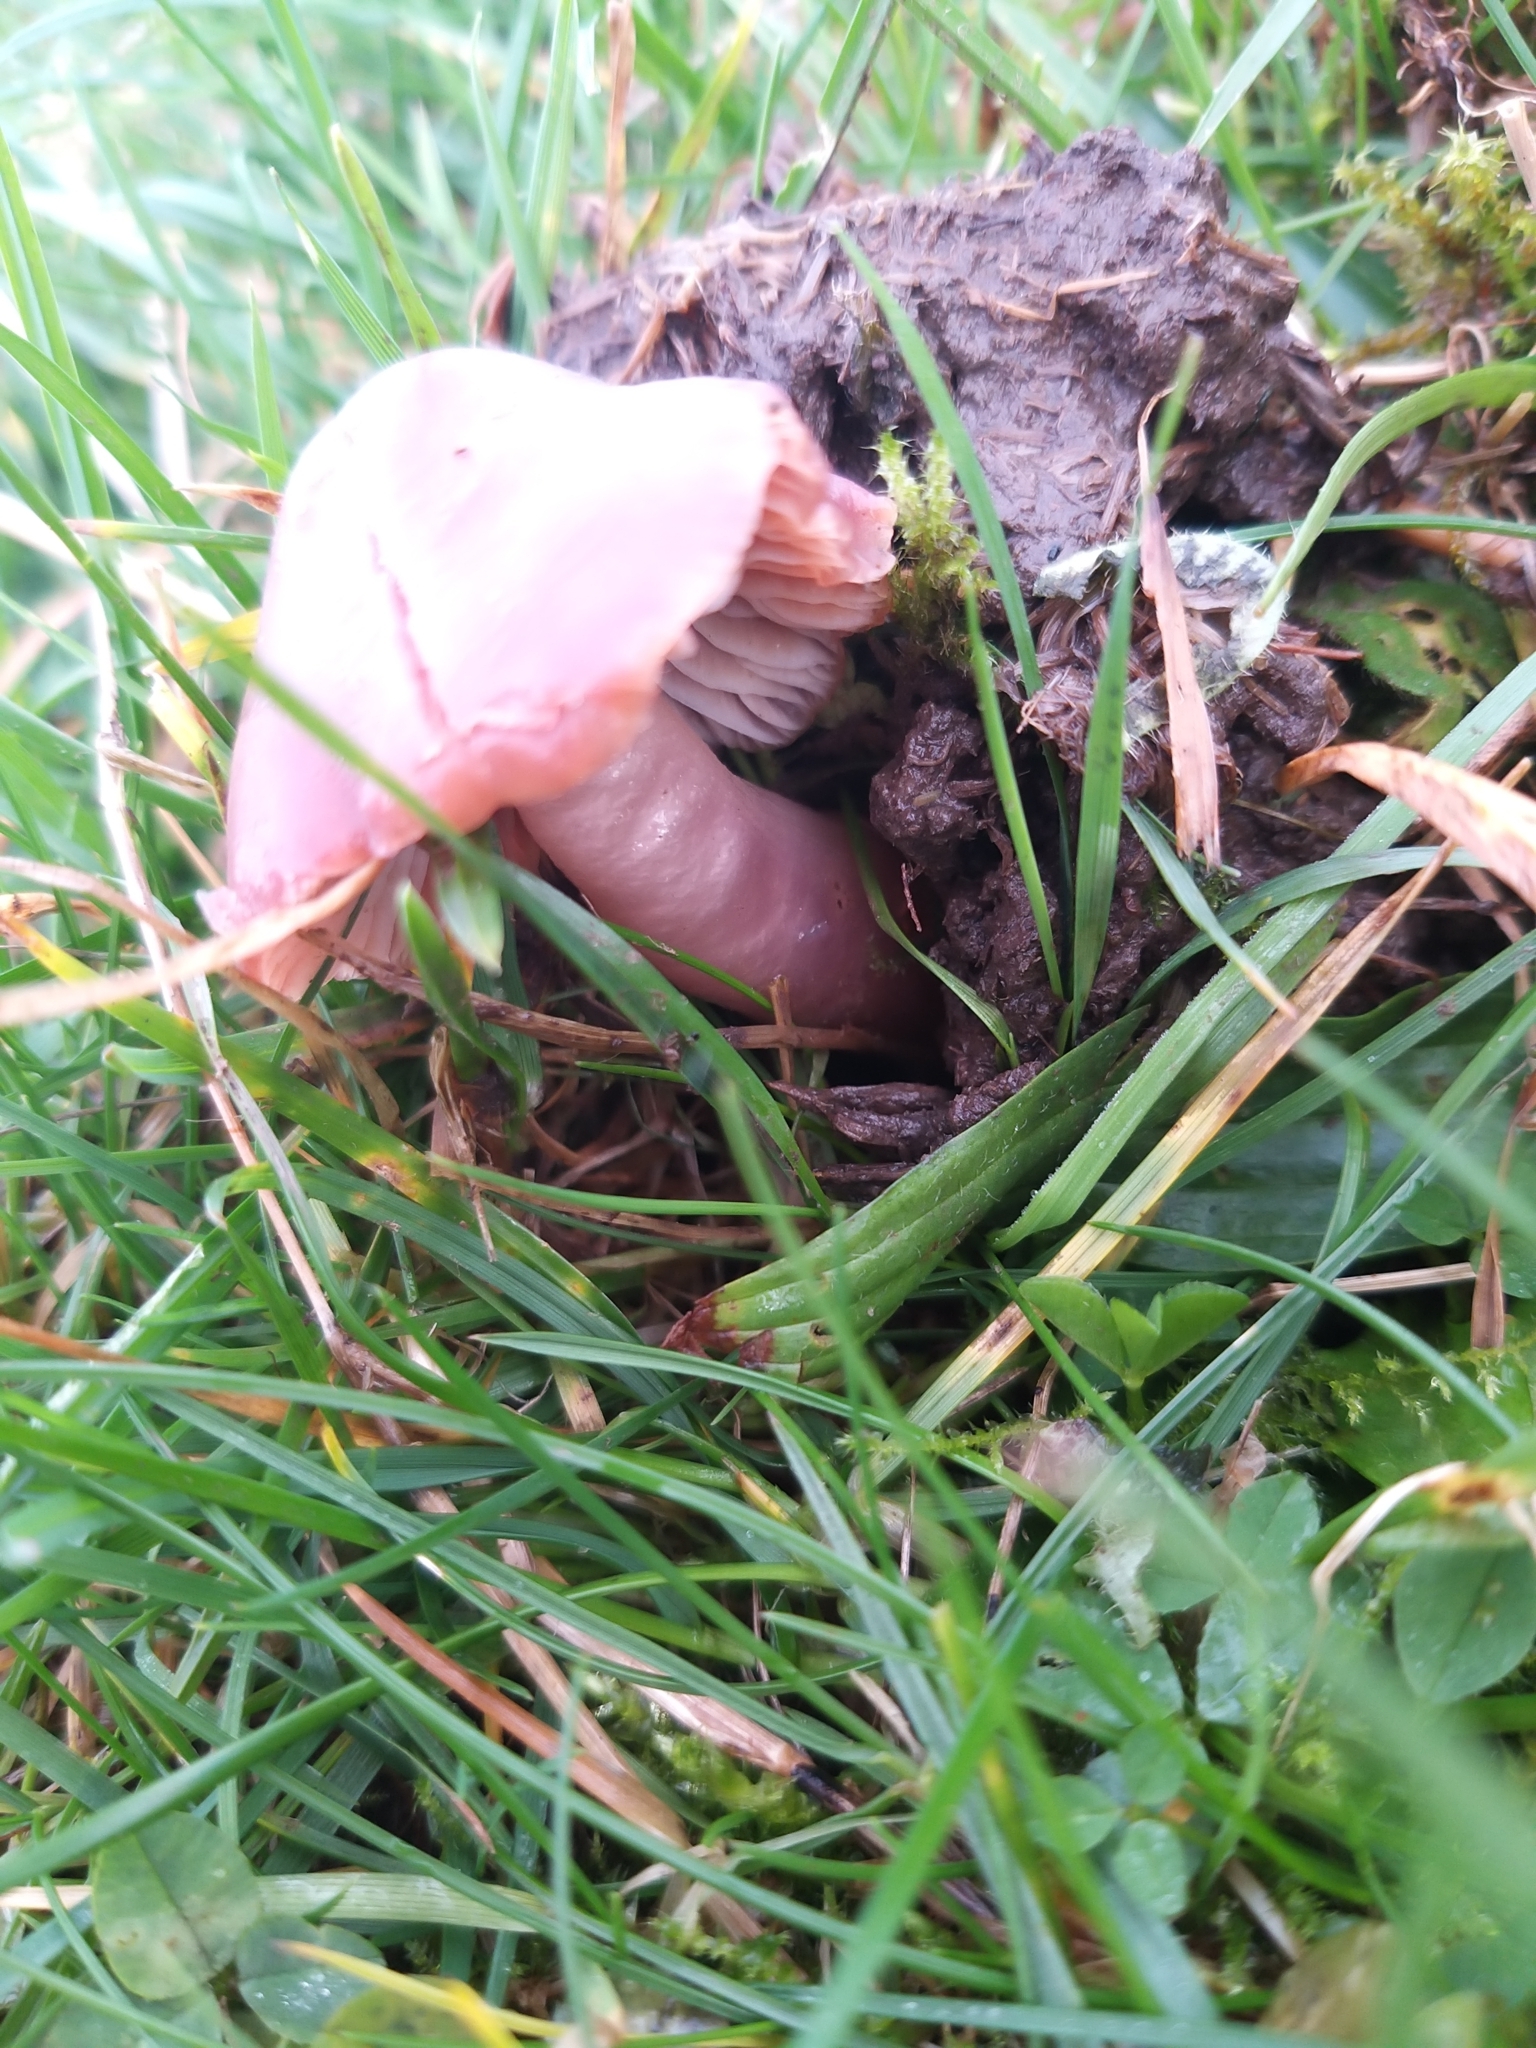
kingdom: Fungi
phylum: Basidiomycota
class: Agaricomycetes
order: Agaricales
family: Hygrophoraceae
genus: Gliophorus
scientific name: Gliophorus reginae
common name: Jubilee waxcap
